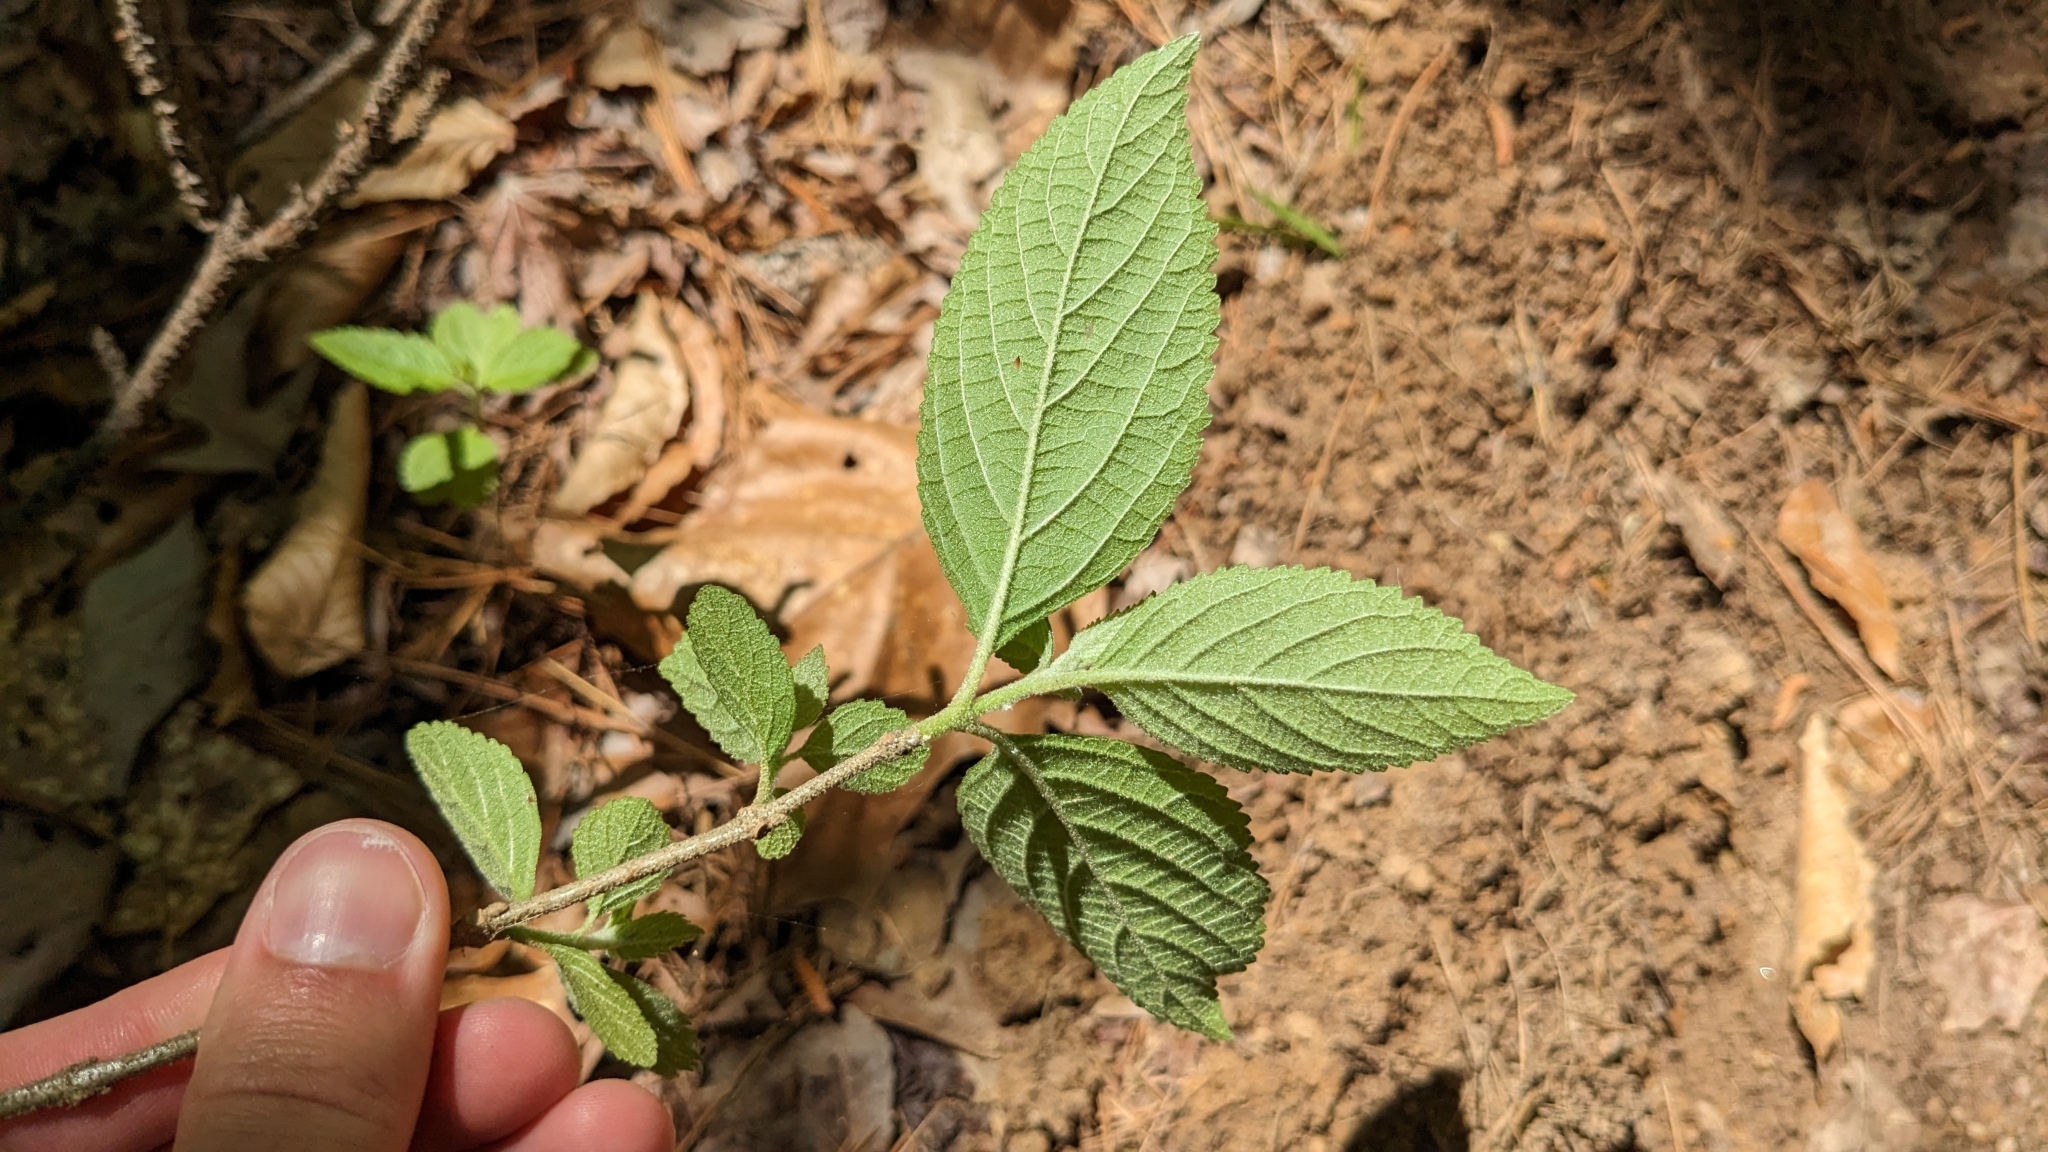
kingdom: Plantae
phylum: Tracheophyta
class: Magnoliopsida
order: Lamiales
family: Lamiaceae
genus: Callicarpa
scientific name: Callicarpa americana
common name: American beautyberry
